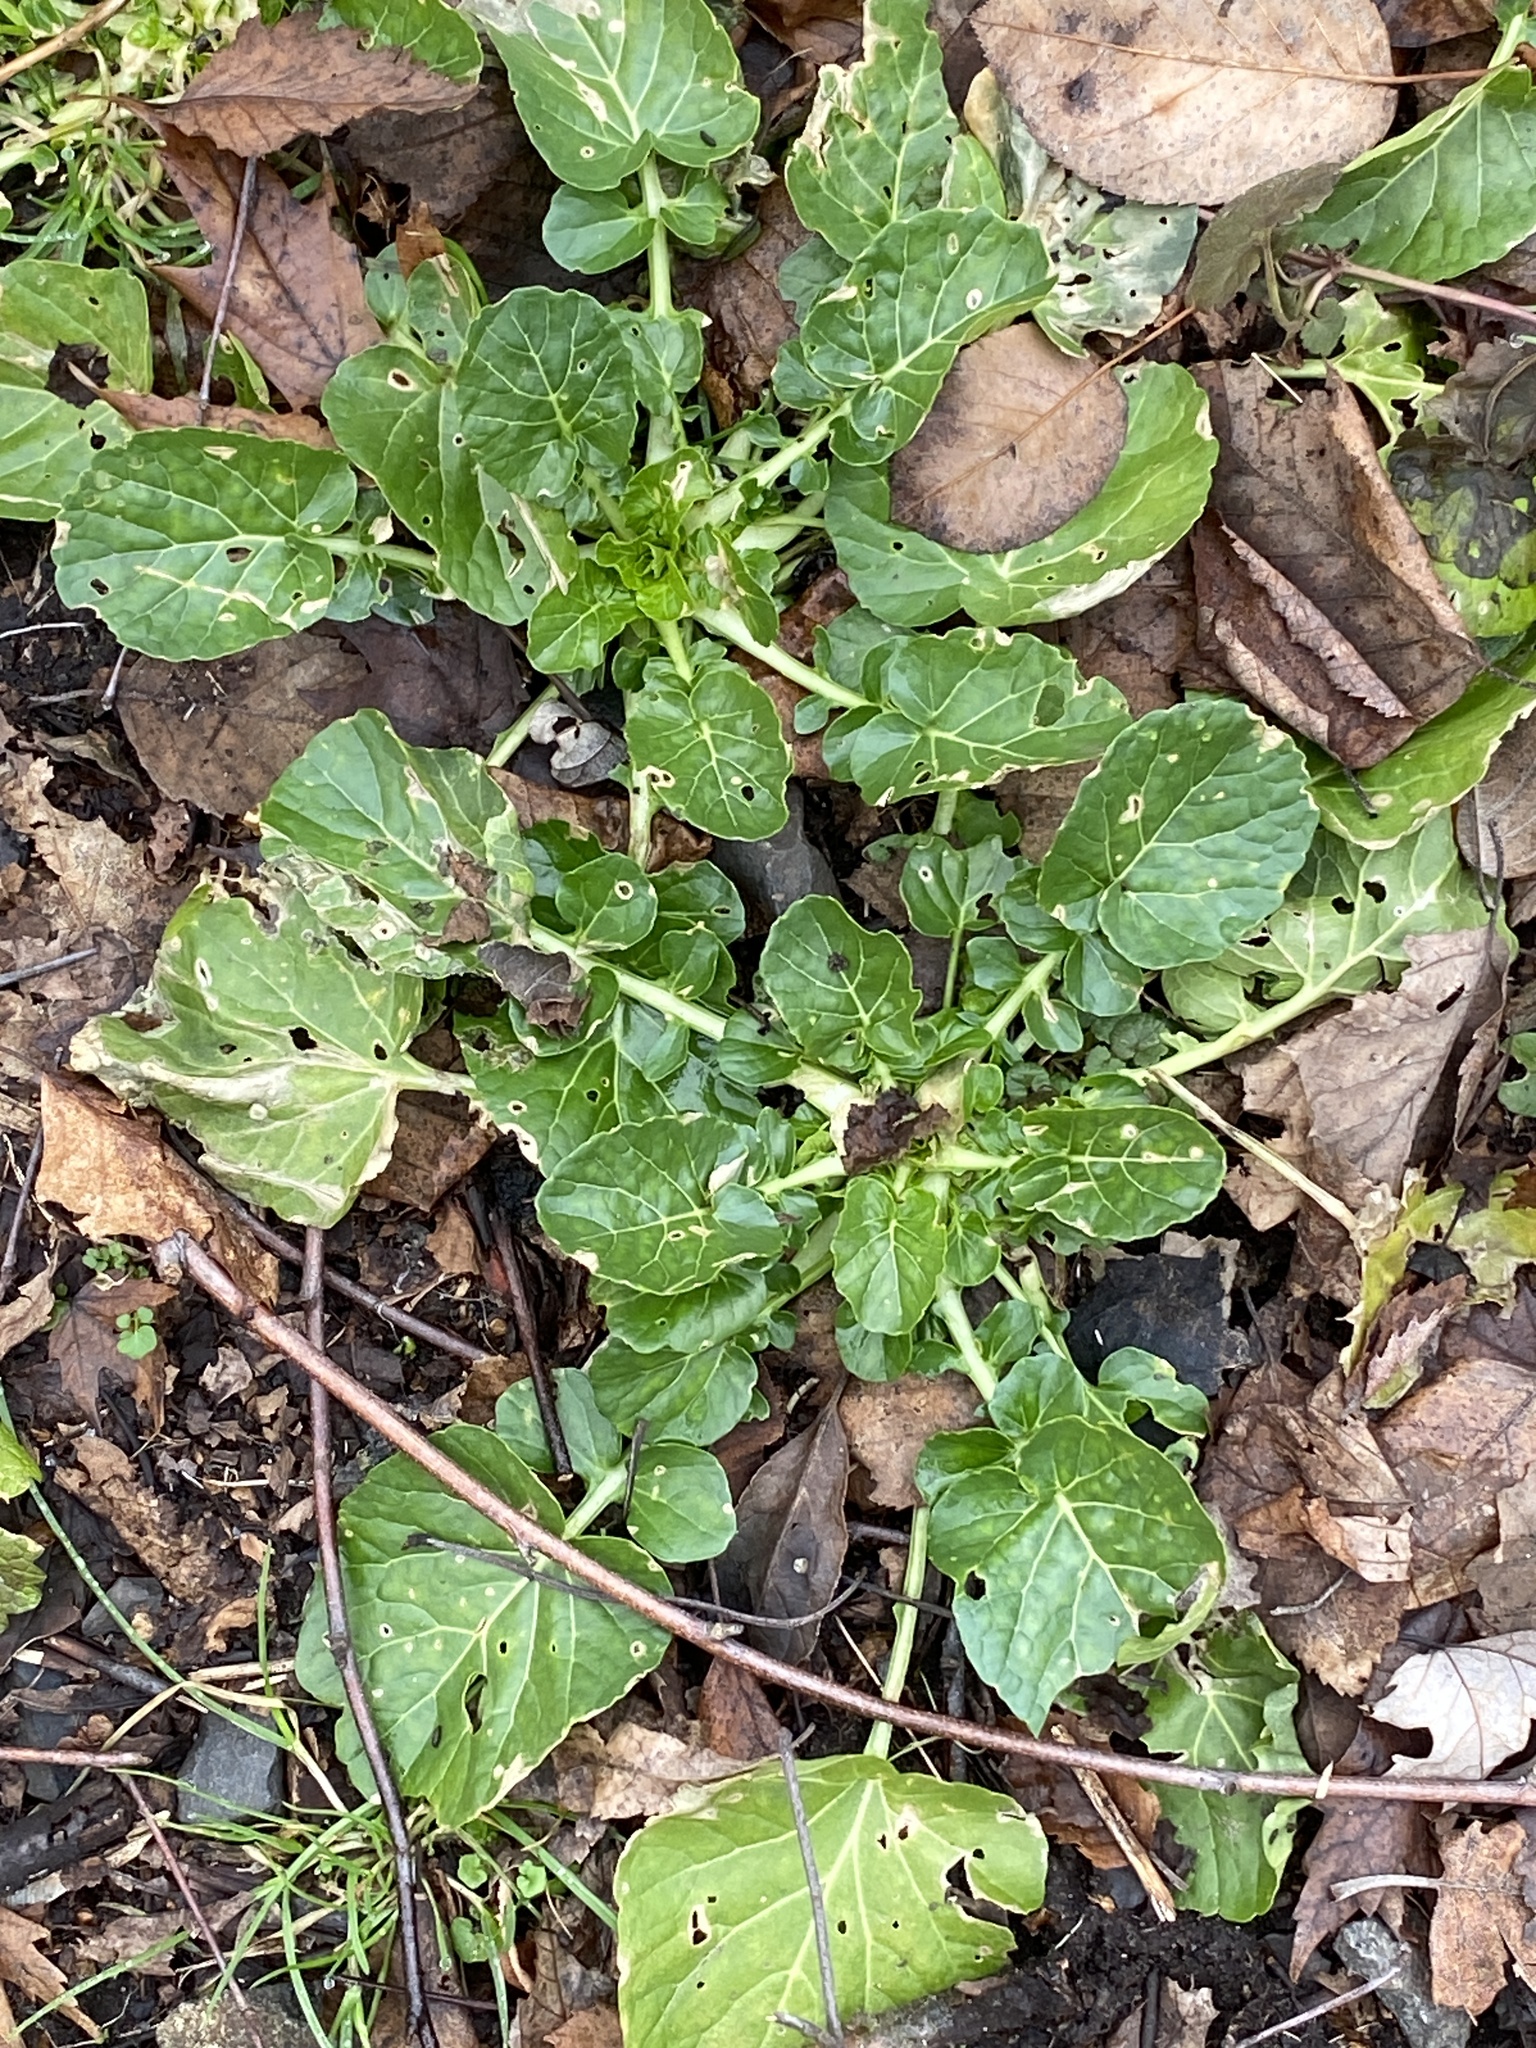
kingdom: Plantae
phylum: Tracheophyta
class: Magnoliopsida
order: Brassicales
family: Brassicaceae
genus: Barbarea
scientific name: Barbarea vulgaris
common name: Cressy-greens
